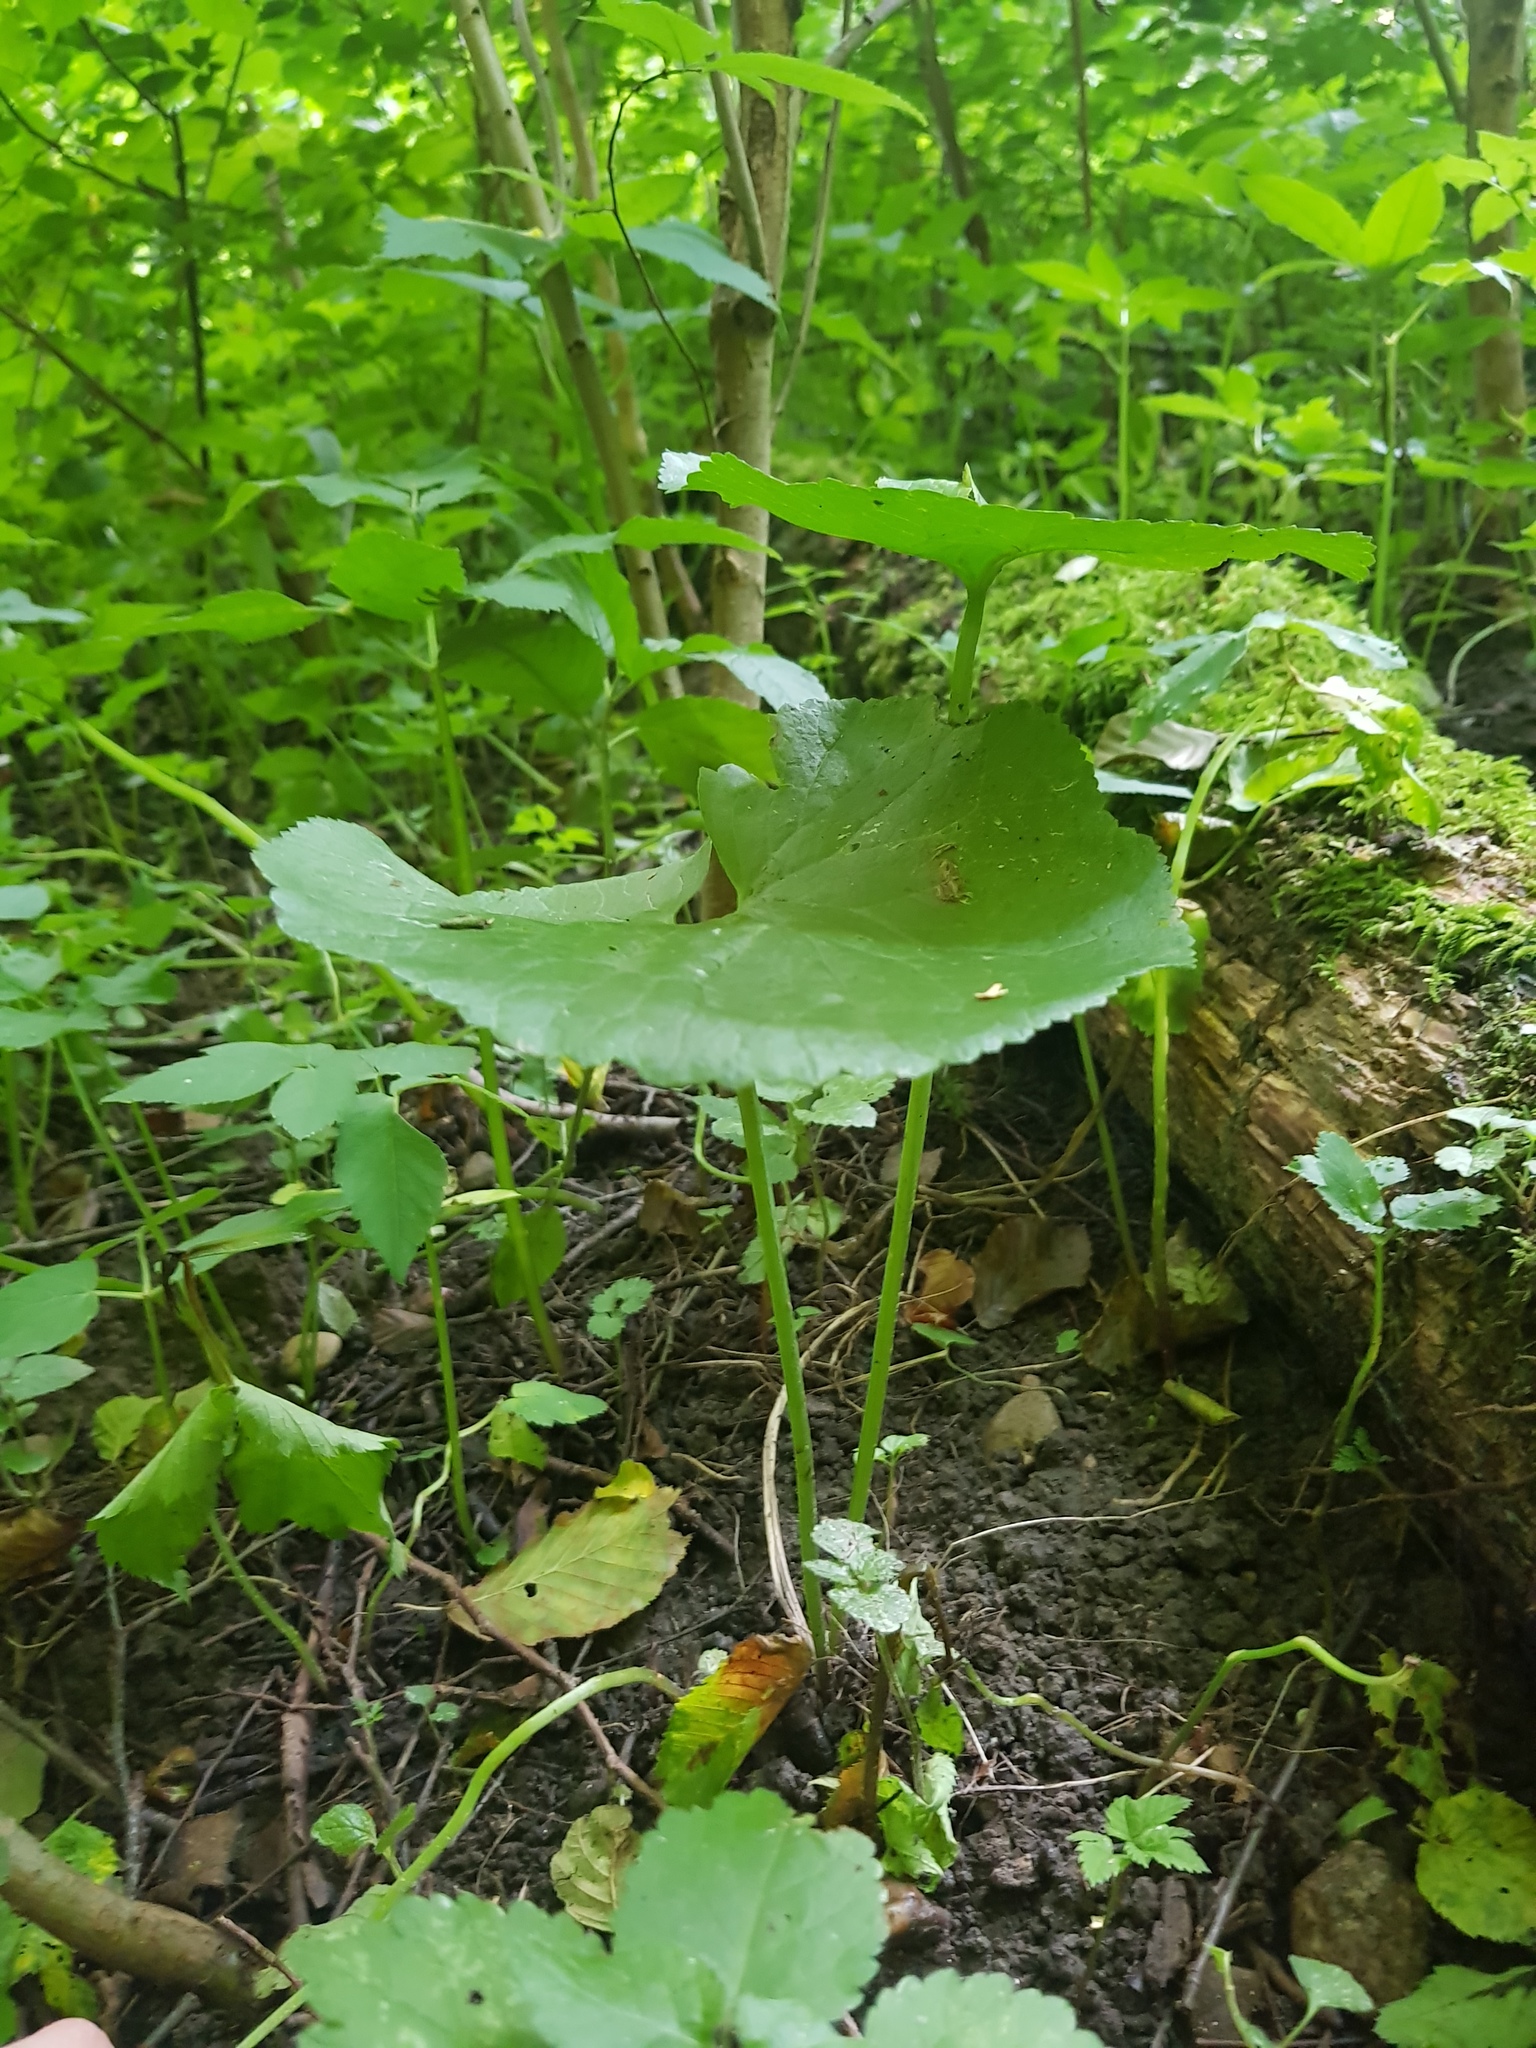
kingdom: Plantae
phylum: Tracheophyta
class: Magnoliopsida
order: Ranunculales
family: Ranunculaceae
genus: Ranunculus
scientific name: Ranunculus cassubicus
